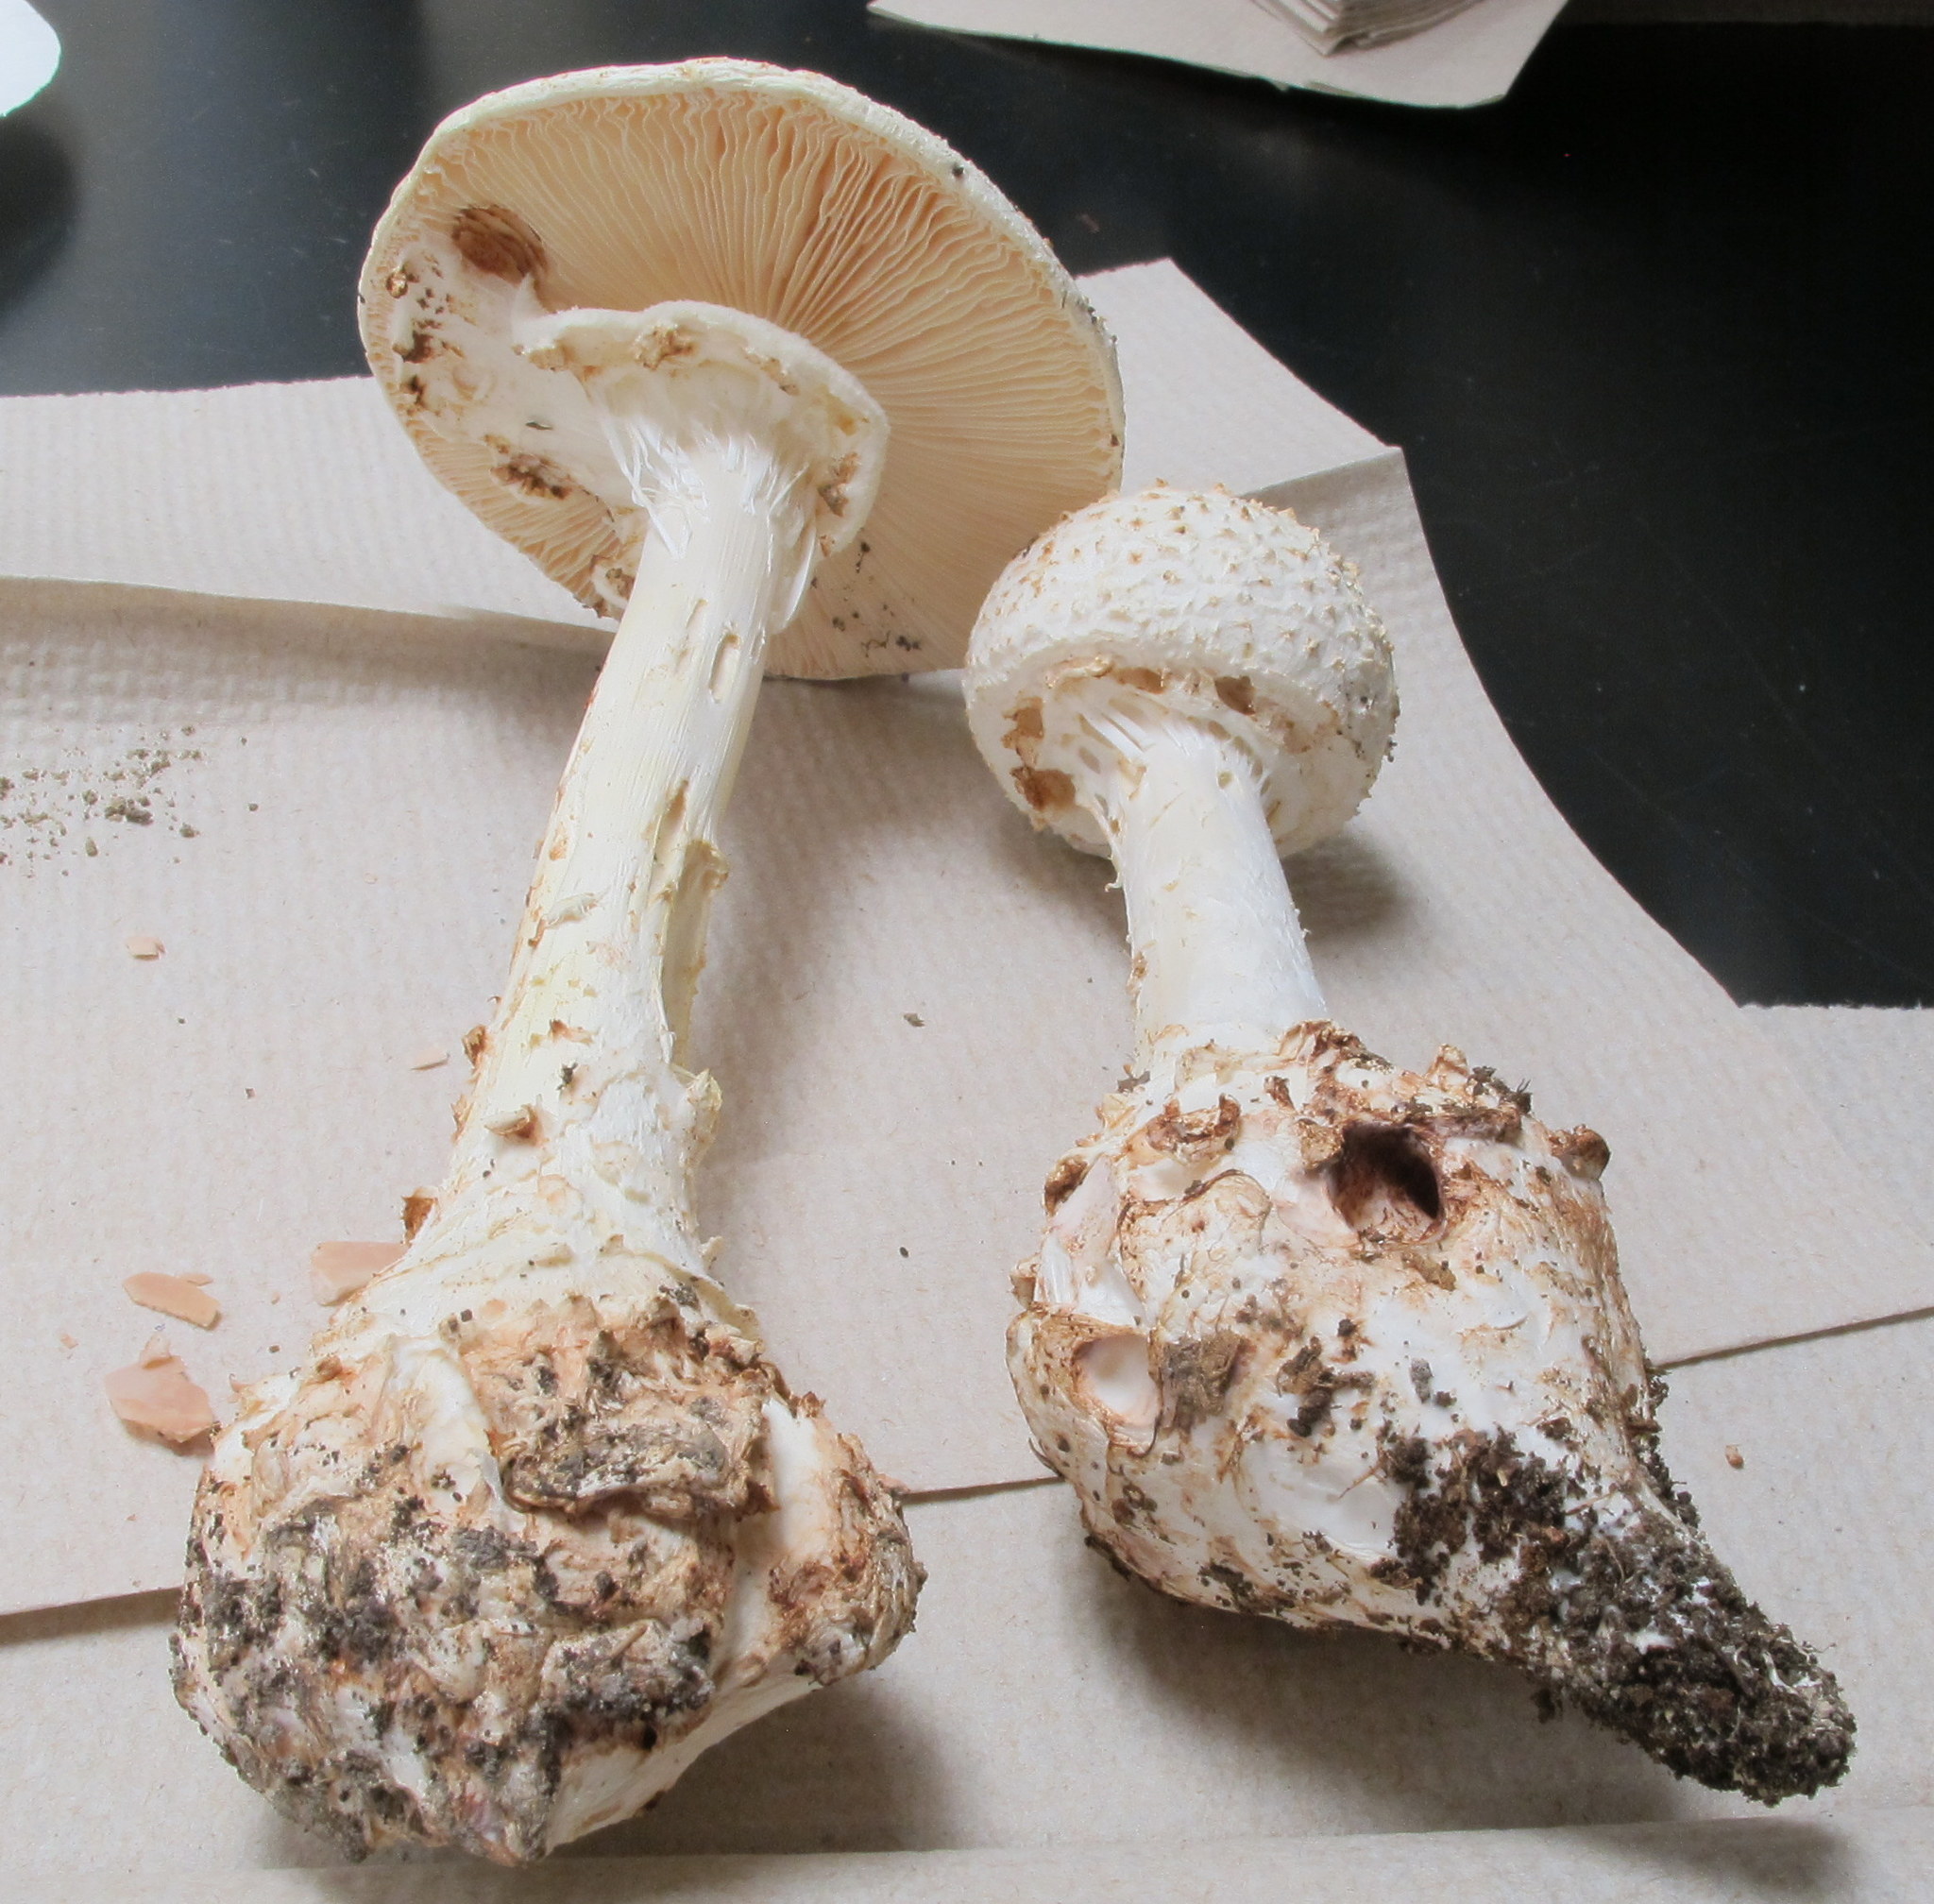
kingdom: Fungi
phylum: Basidiomycota
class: Agaricomycetes
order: Agaricales
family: Amanitaceae
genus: Amanita
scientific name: Amanita daucipes
